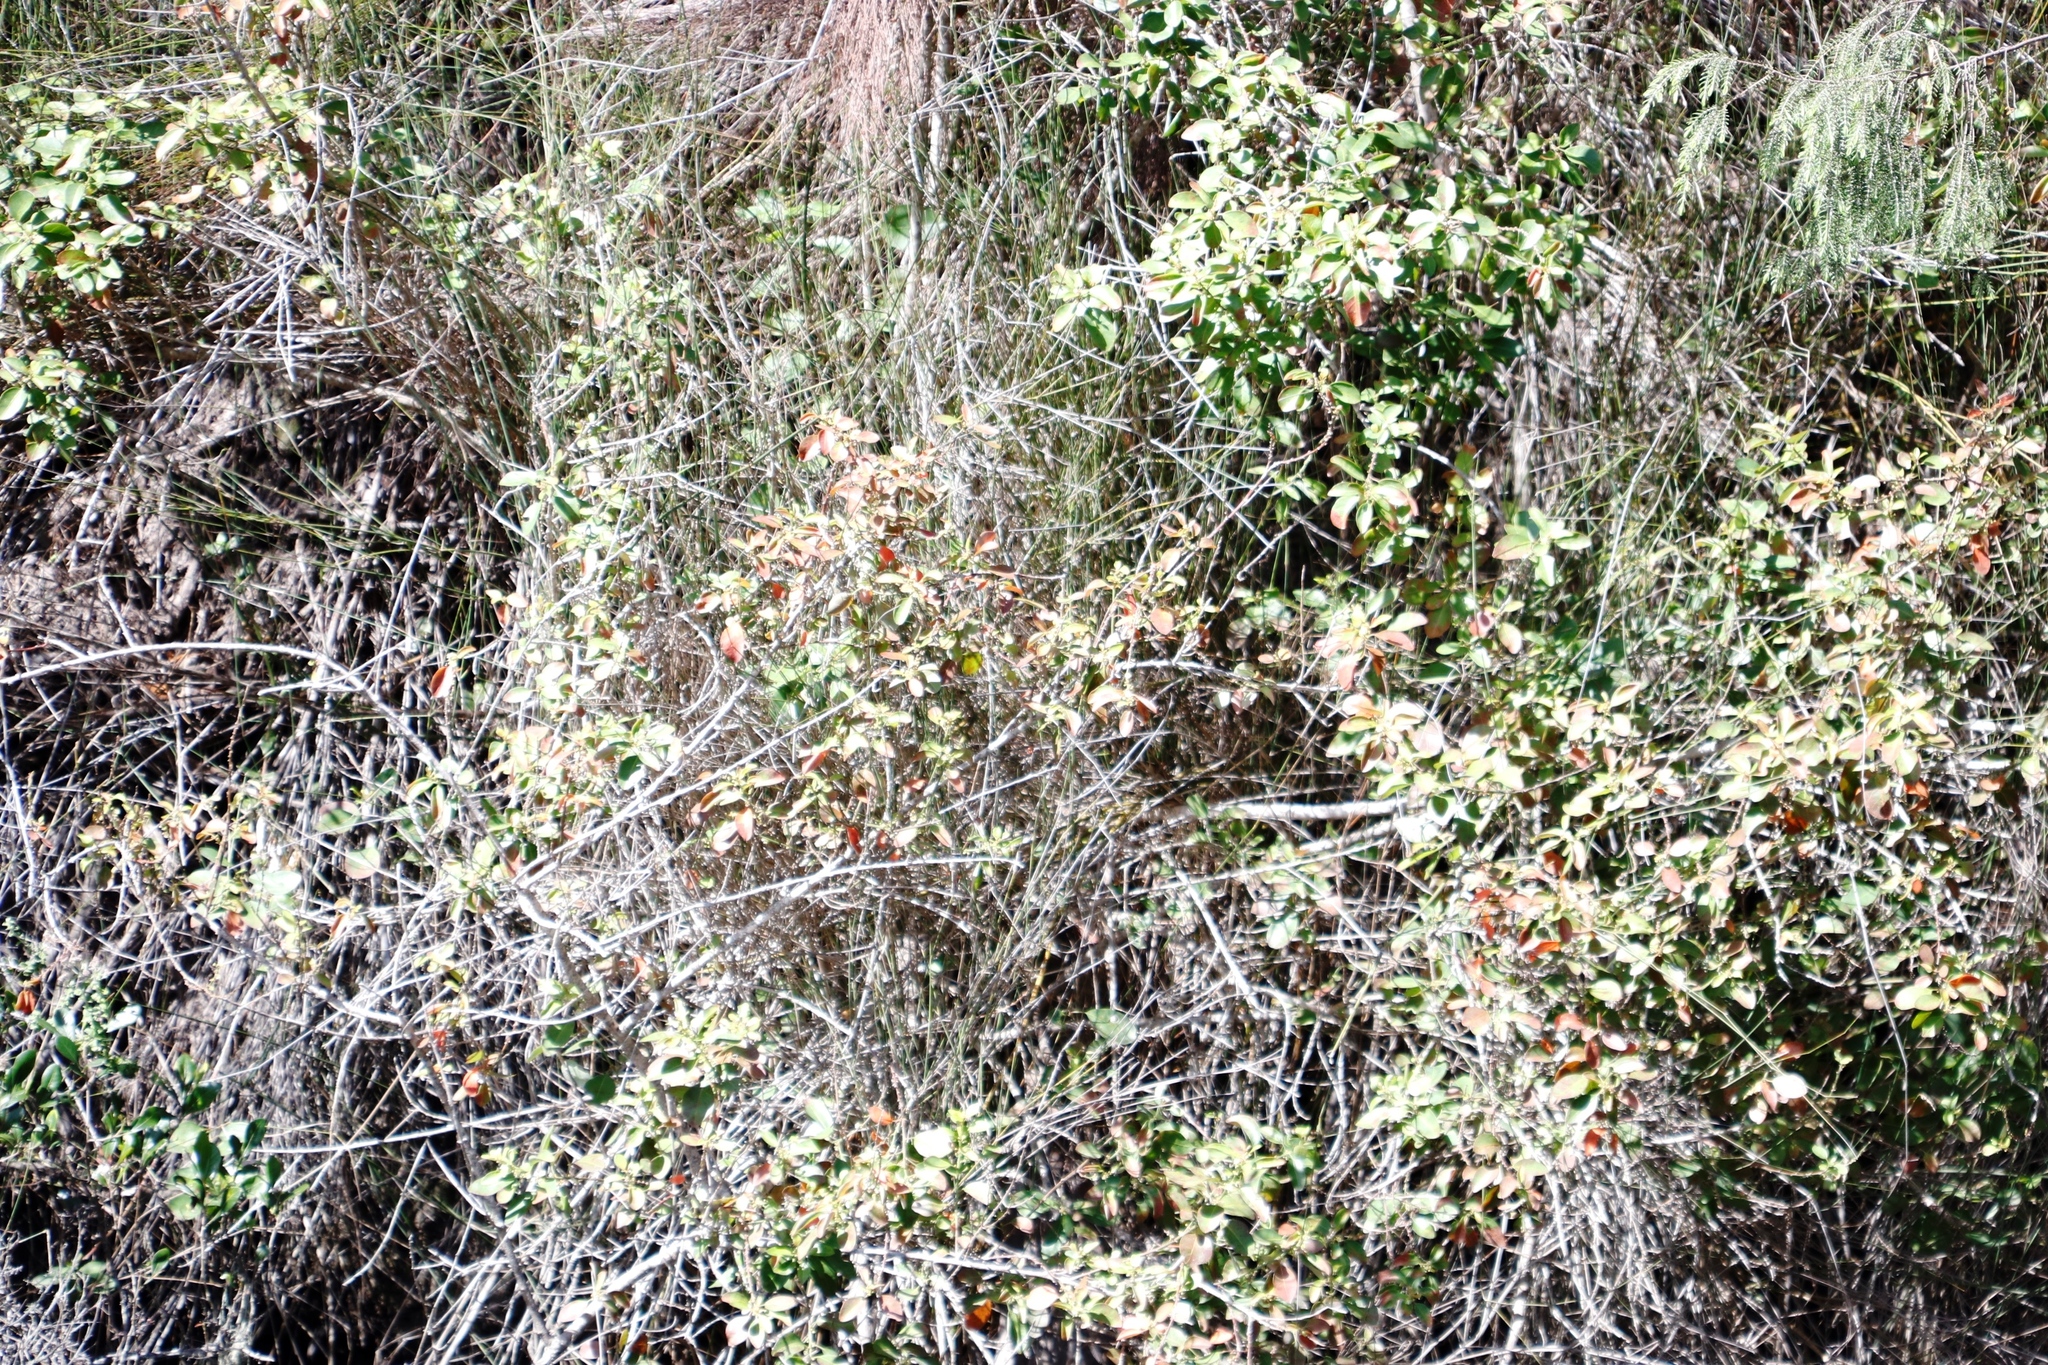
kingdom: Plantae
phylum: Tracheophyta
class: Magnoliopsida
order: Malpighiales
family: Peraceae
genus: Clutia
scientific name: Clutia pulchella
